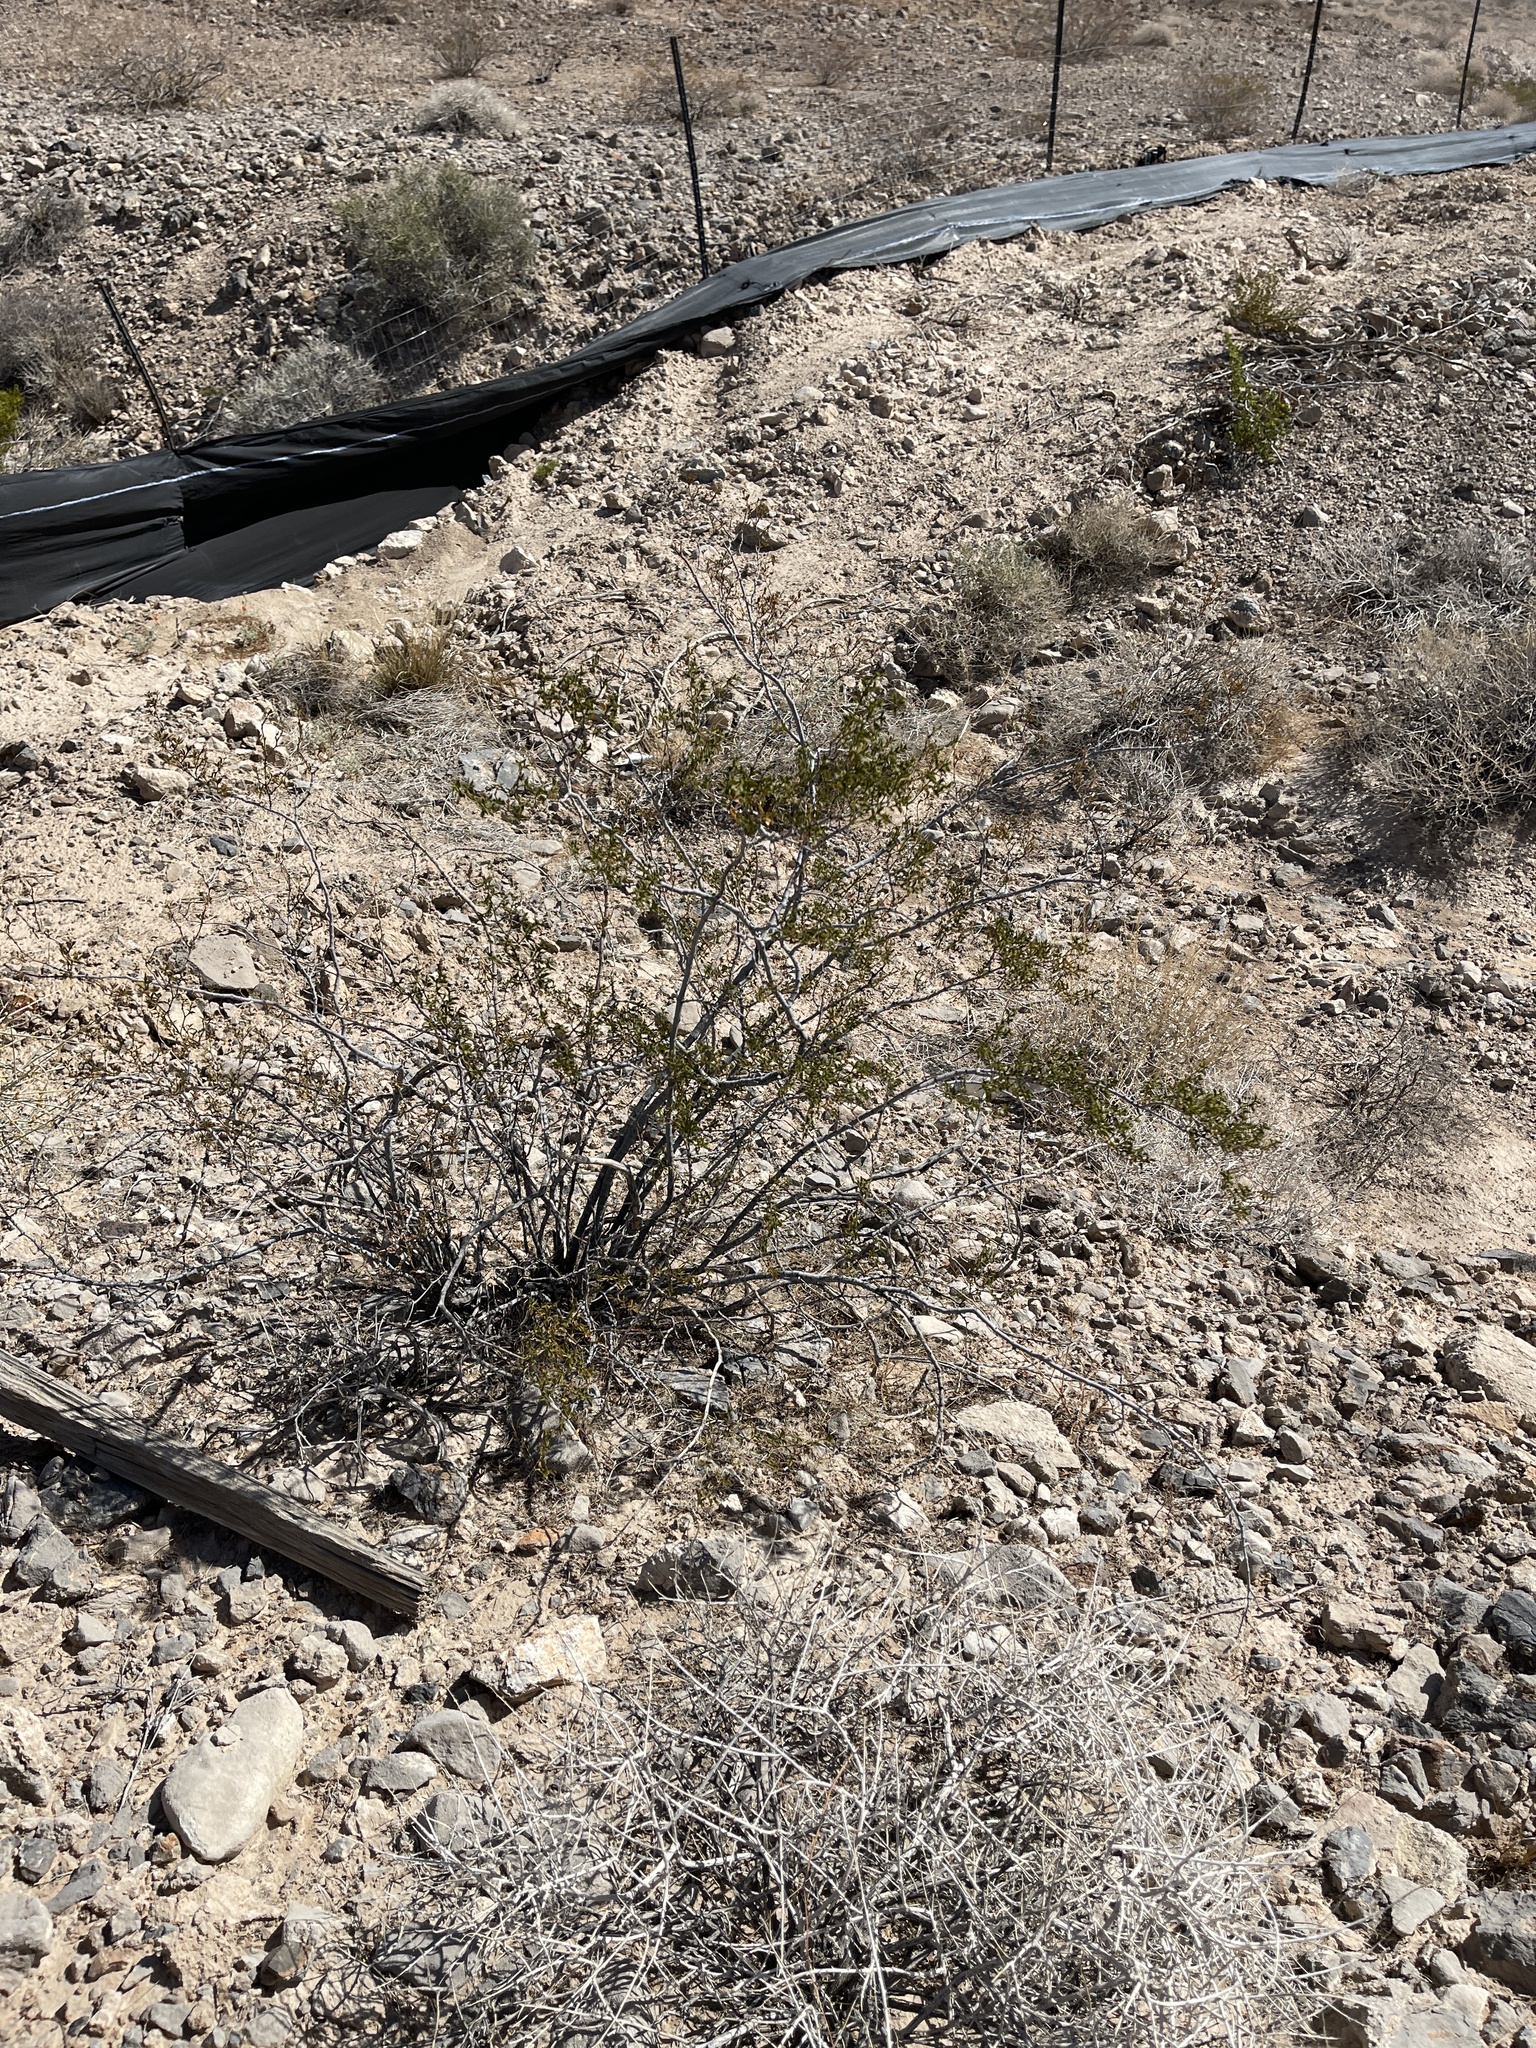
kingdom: Plantae
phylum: Tracheophyta
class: Magnoliopsida
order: Zygophyllales
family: Zygophyllaceae
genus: Larrea
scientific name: Larrea tridentata
